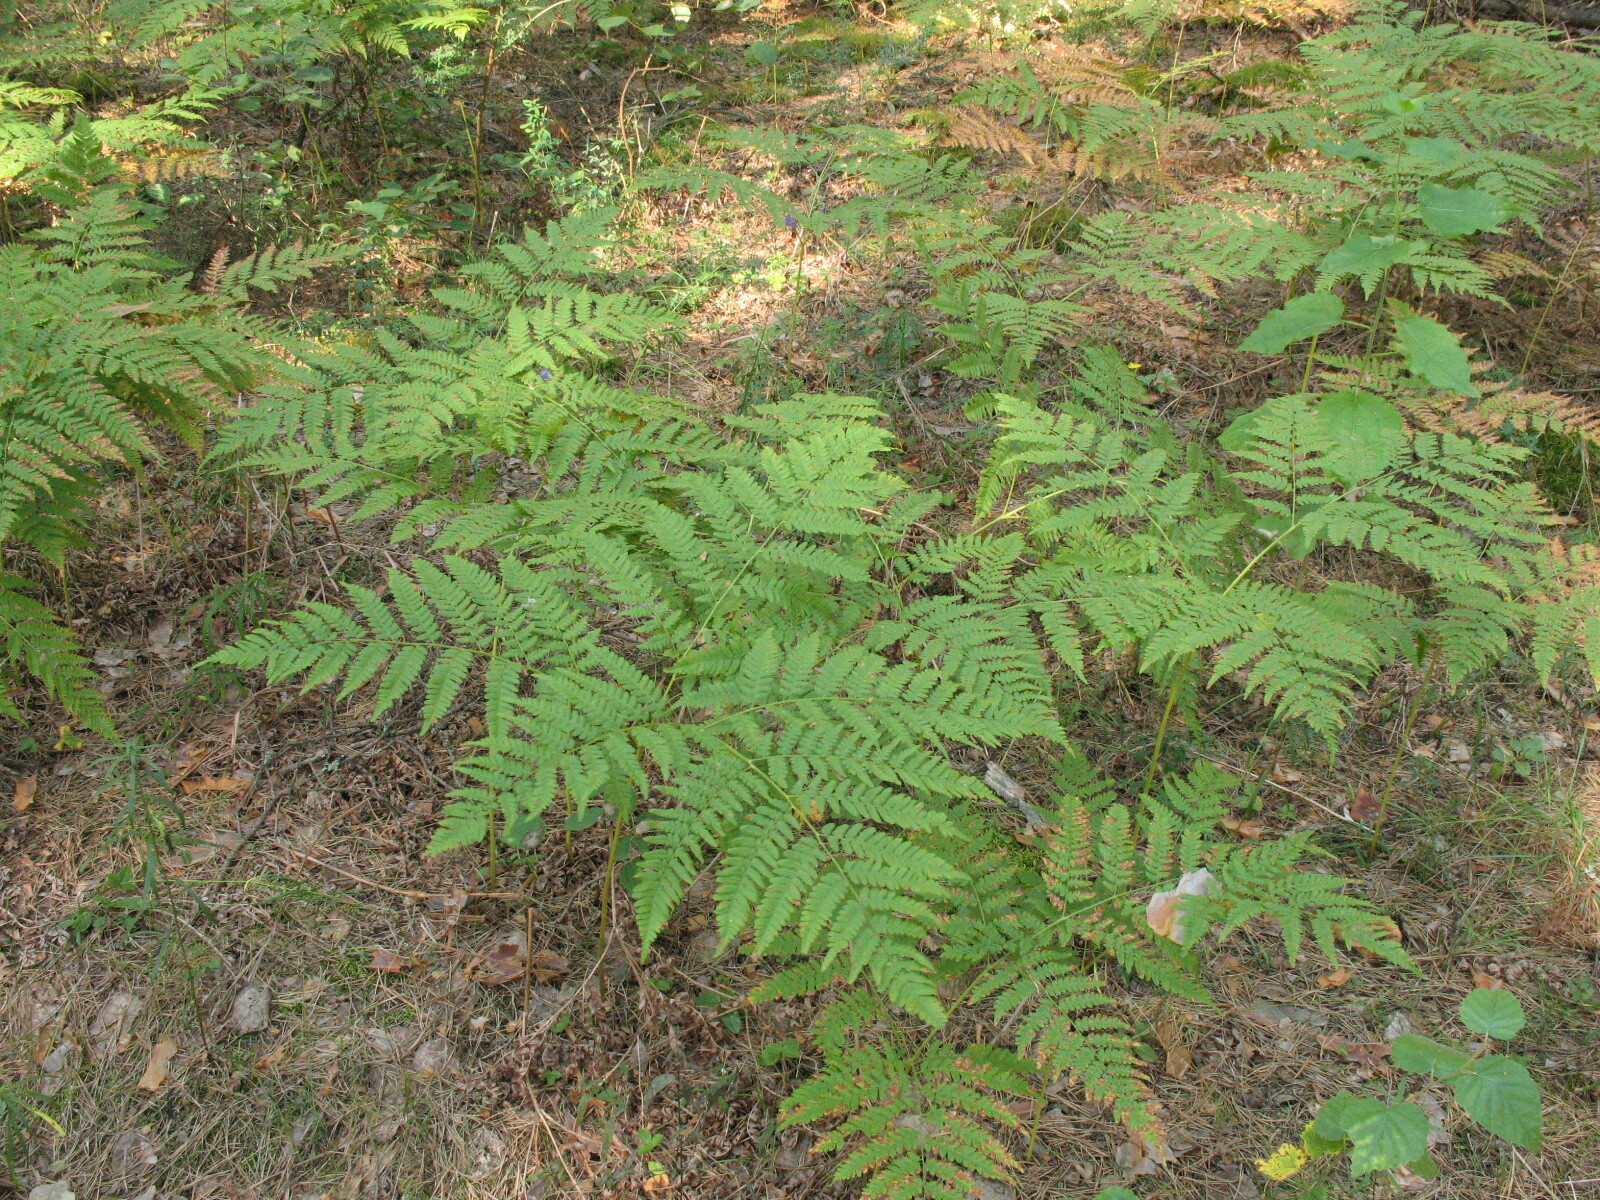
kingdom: Plantae
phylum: Tracheophyta
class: Polypodiopsida
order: Polypodiales
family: Dennstaedtiaceae
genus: Pteridium
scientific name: Pteridium aquilinum
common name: Bracken
